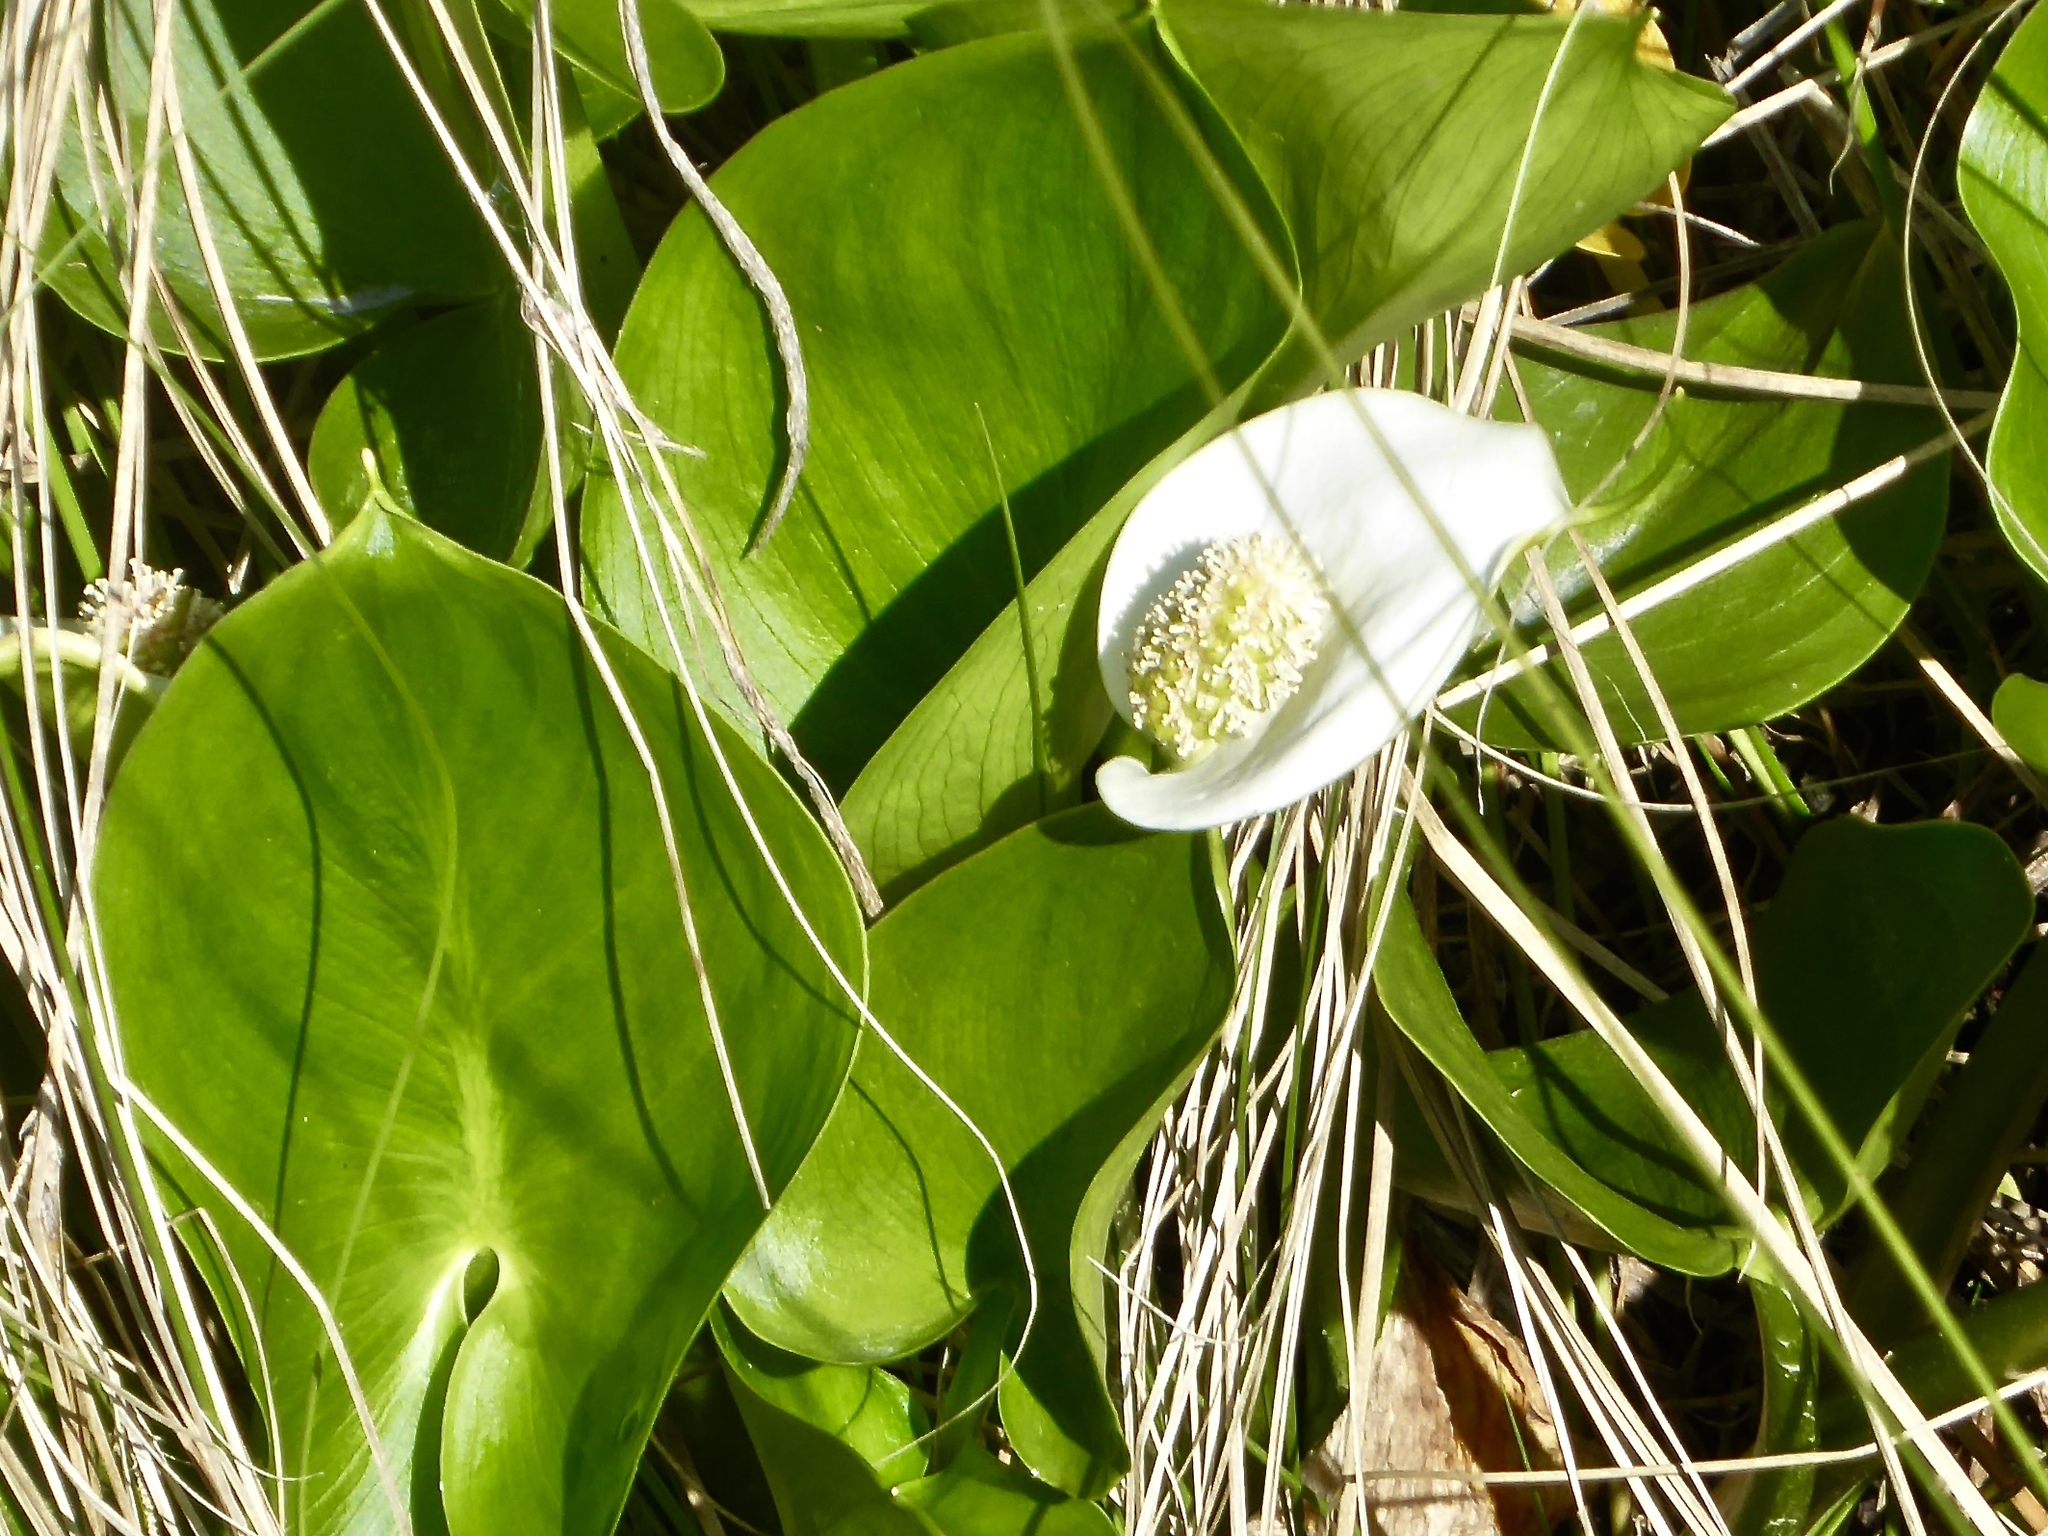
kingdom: Plantae
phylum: Tracheophyta
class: Liliopsida
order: Alismatales
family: Araceae
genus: Calla
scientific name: Calla palustris
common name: Bog arum
